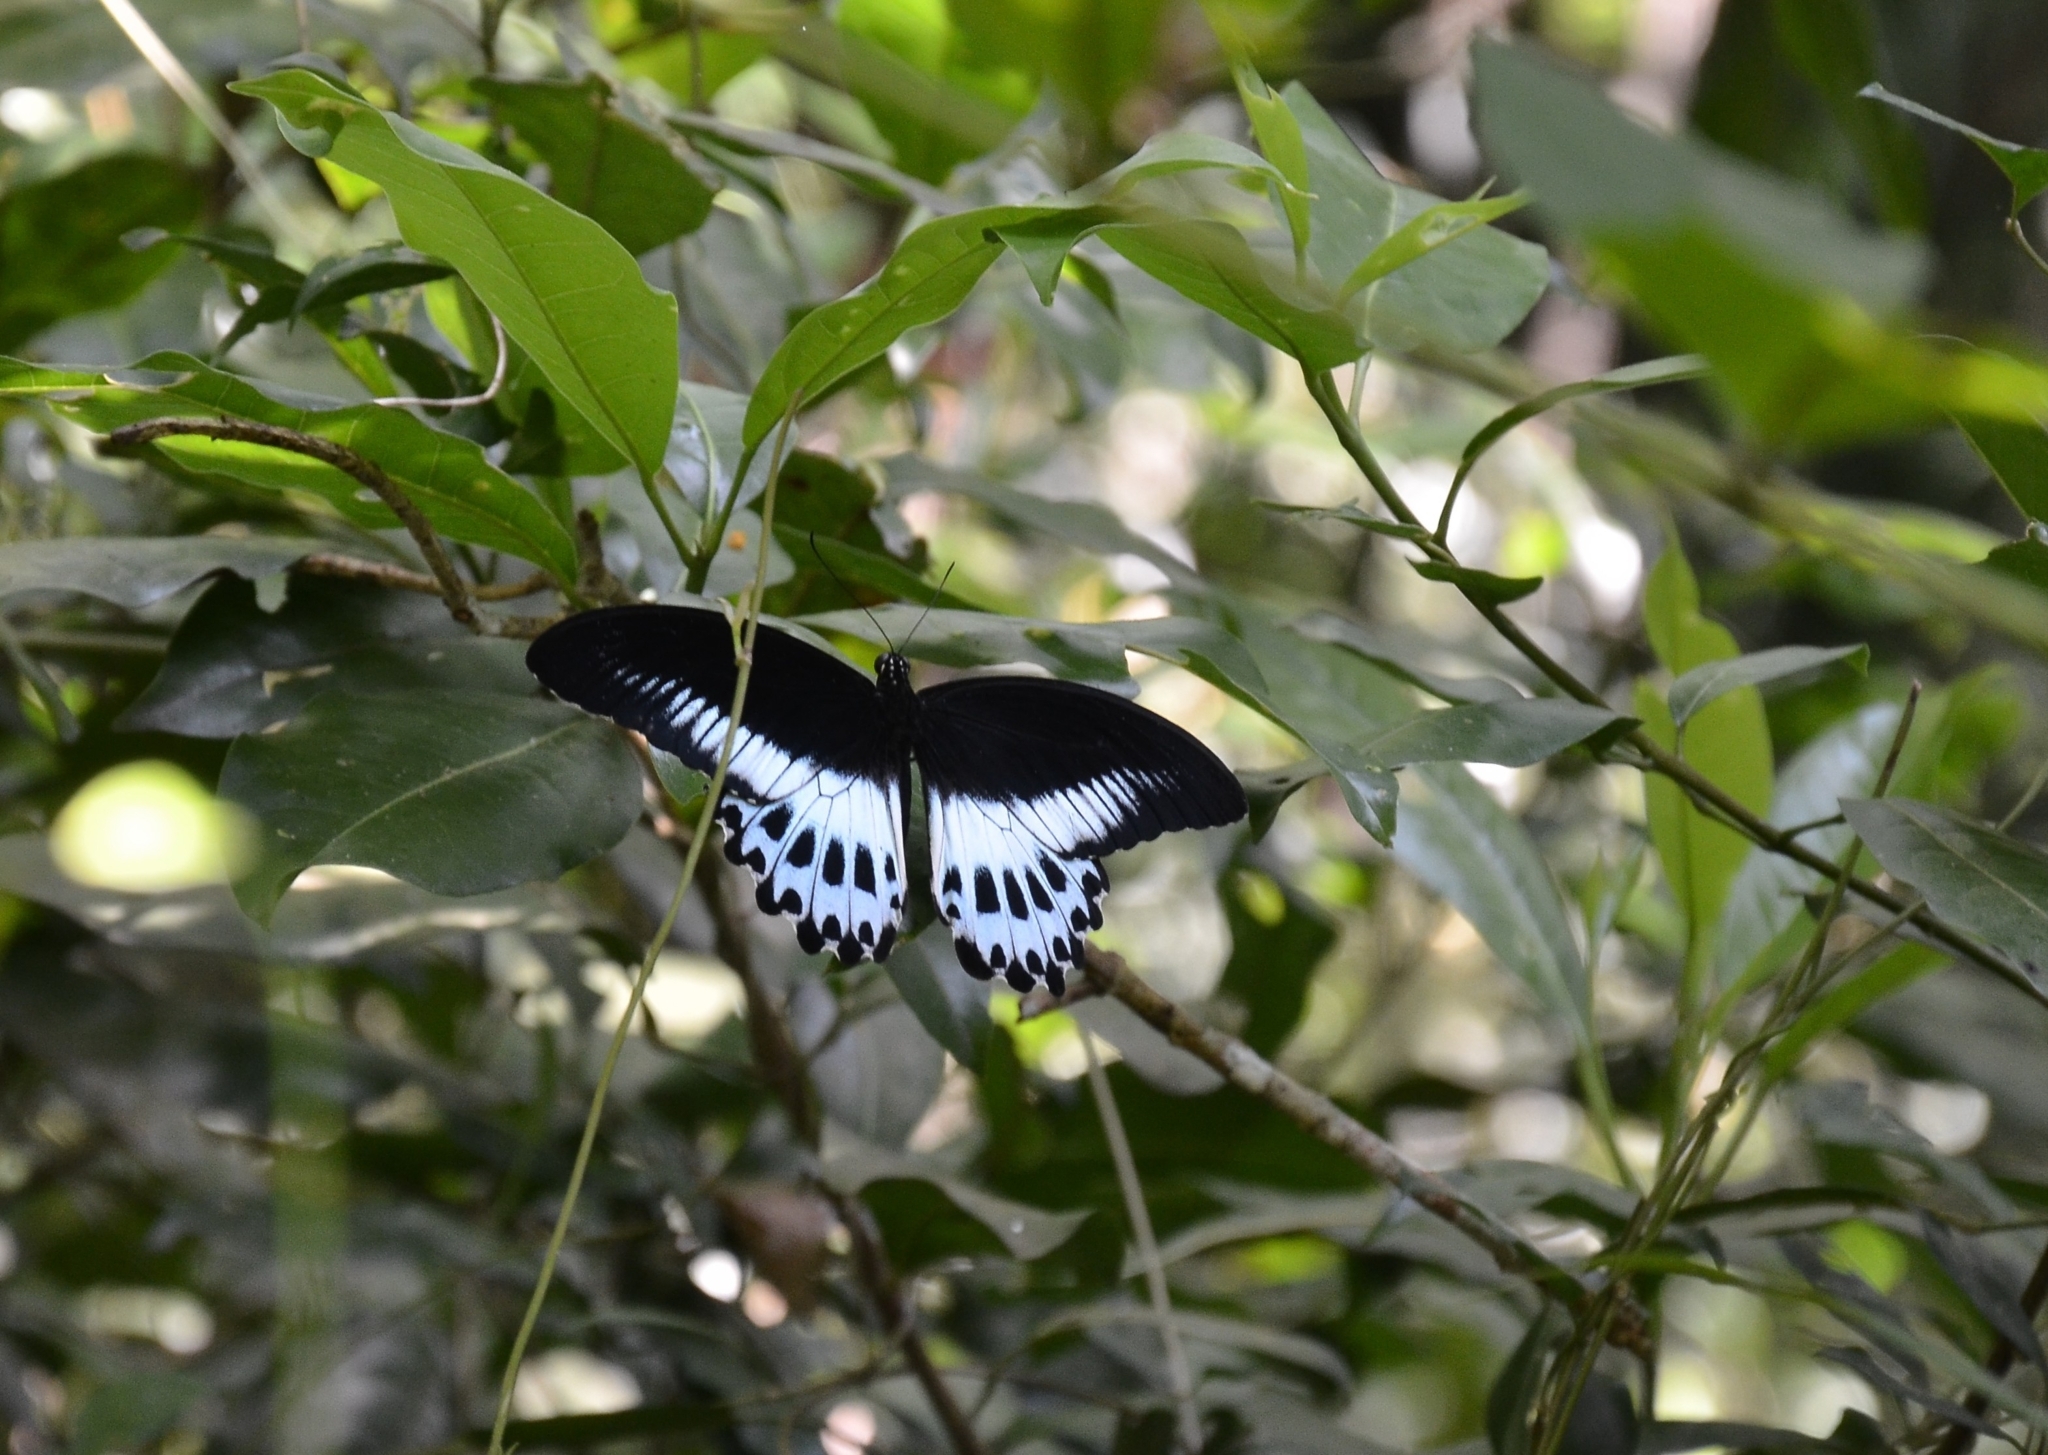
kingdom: Animalia
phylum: Arthropoda
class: Insecta
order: Lepidoptera
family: Papilionidae
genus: Papilio
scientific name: Papilio memnon
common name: Great mormon
